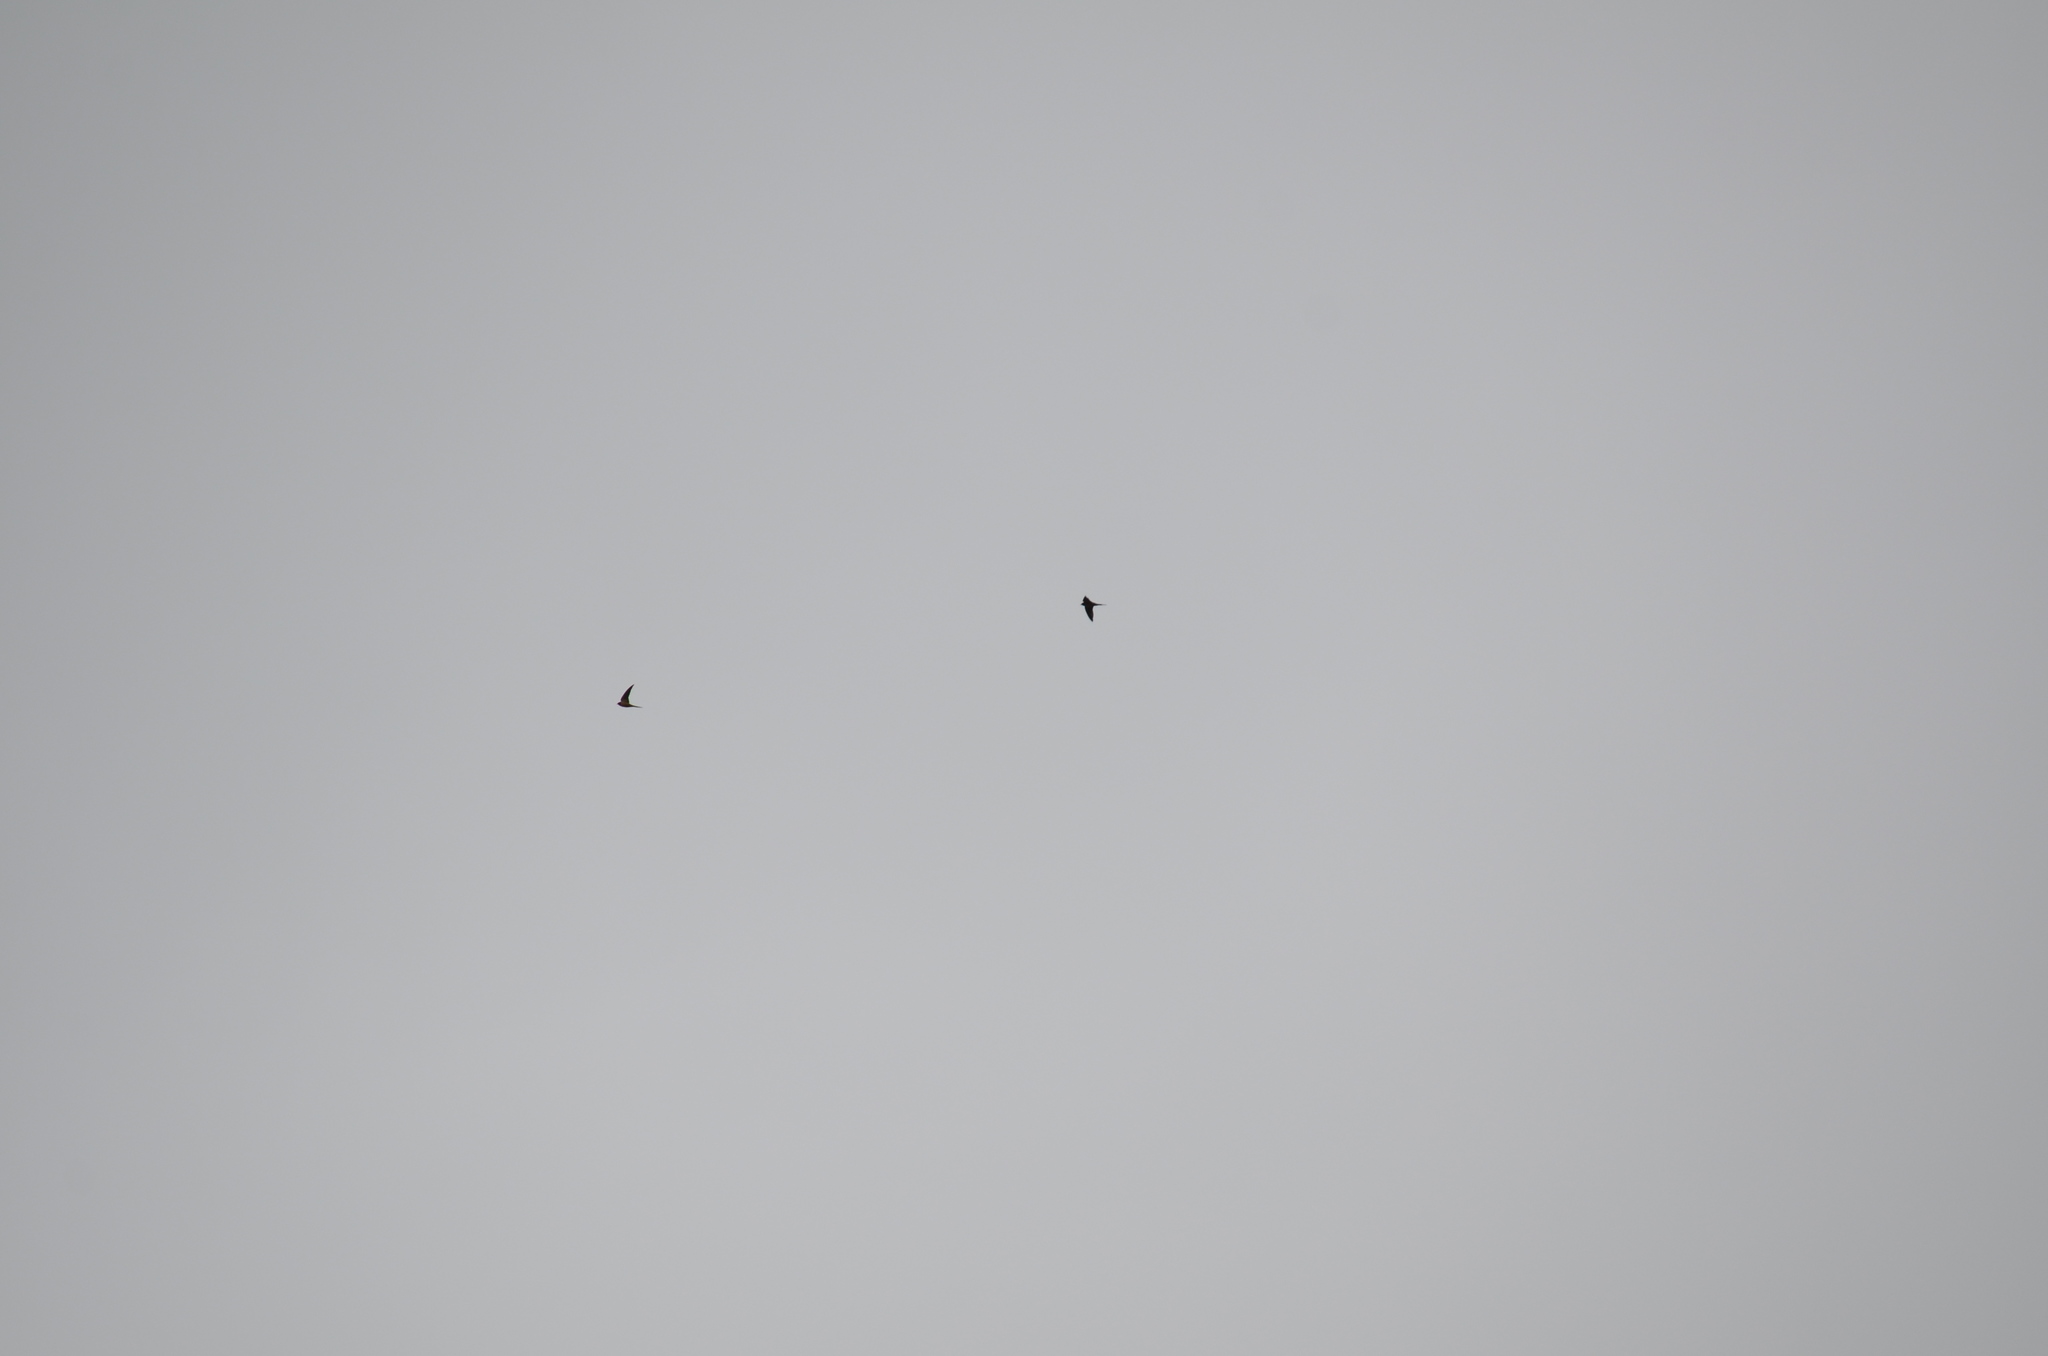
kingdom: Animalia
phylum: Chordata
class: Aves
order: Passeriformes
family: Hirundinidae
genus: Hirundo
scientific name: Hirundo rustica
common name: Barn swallow
